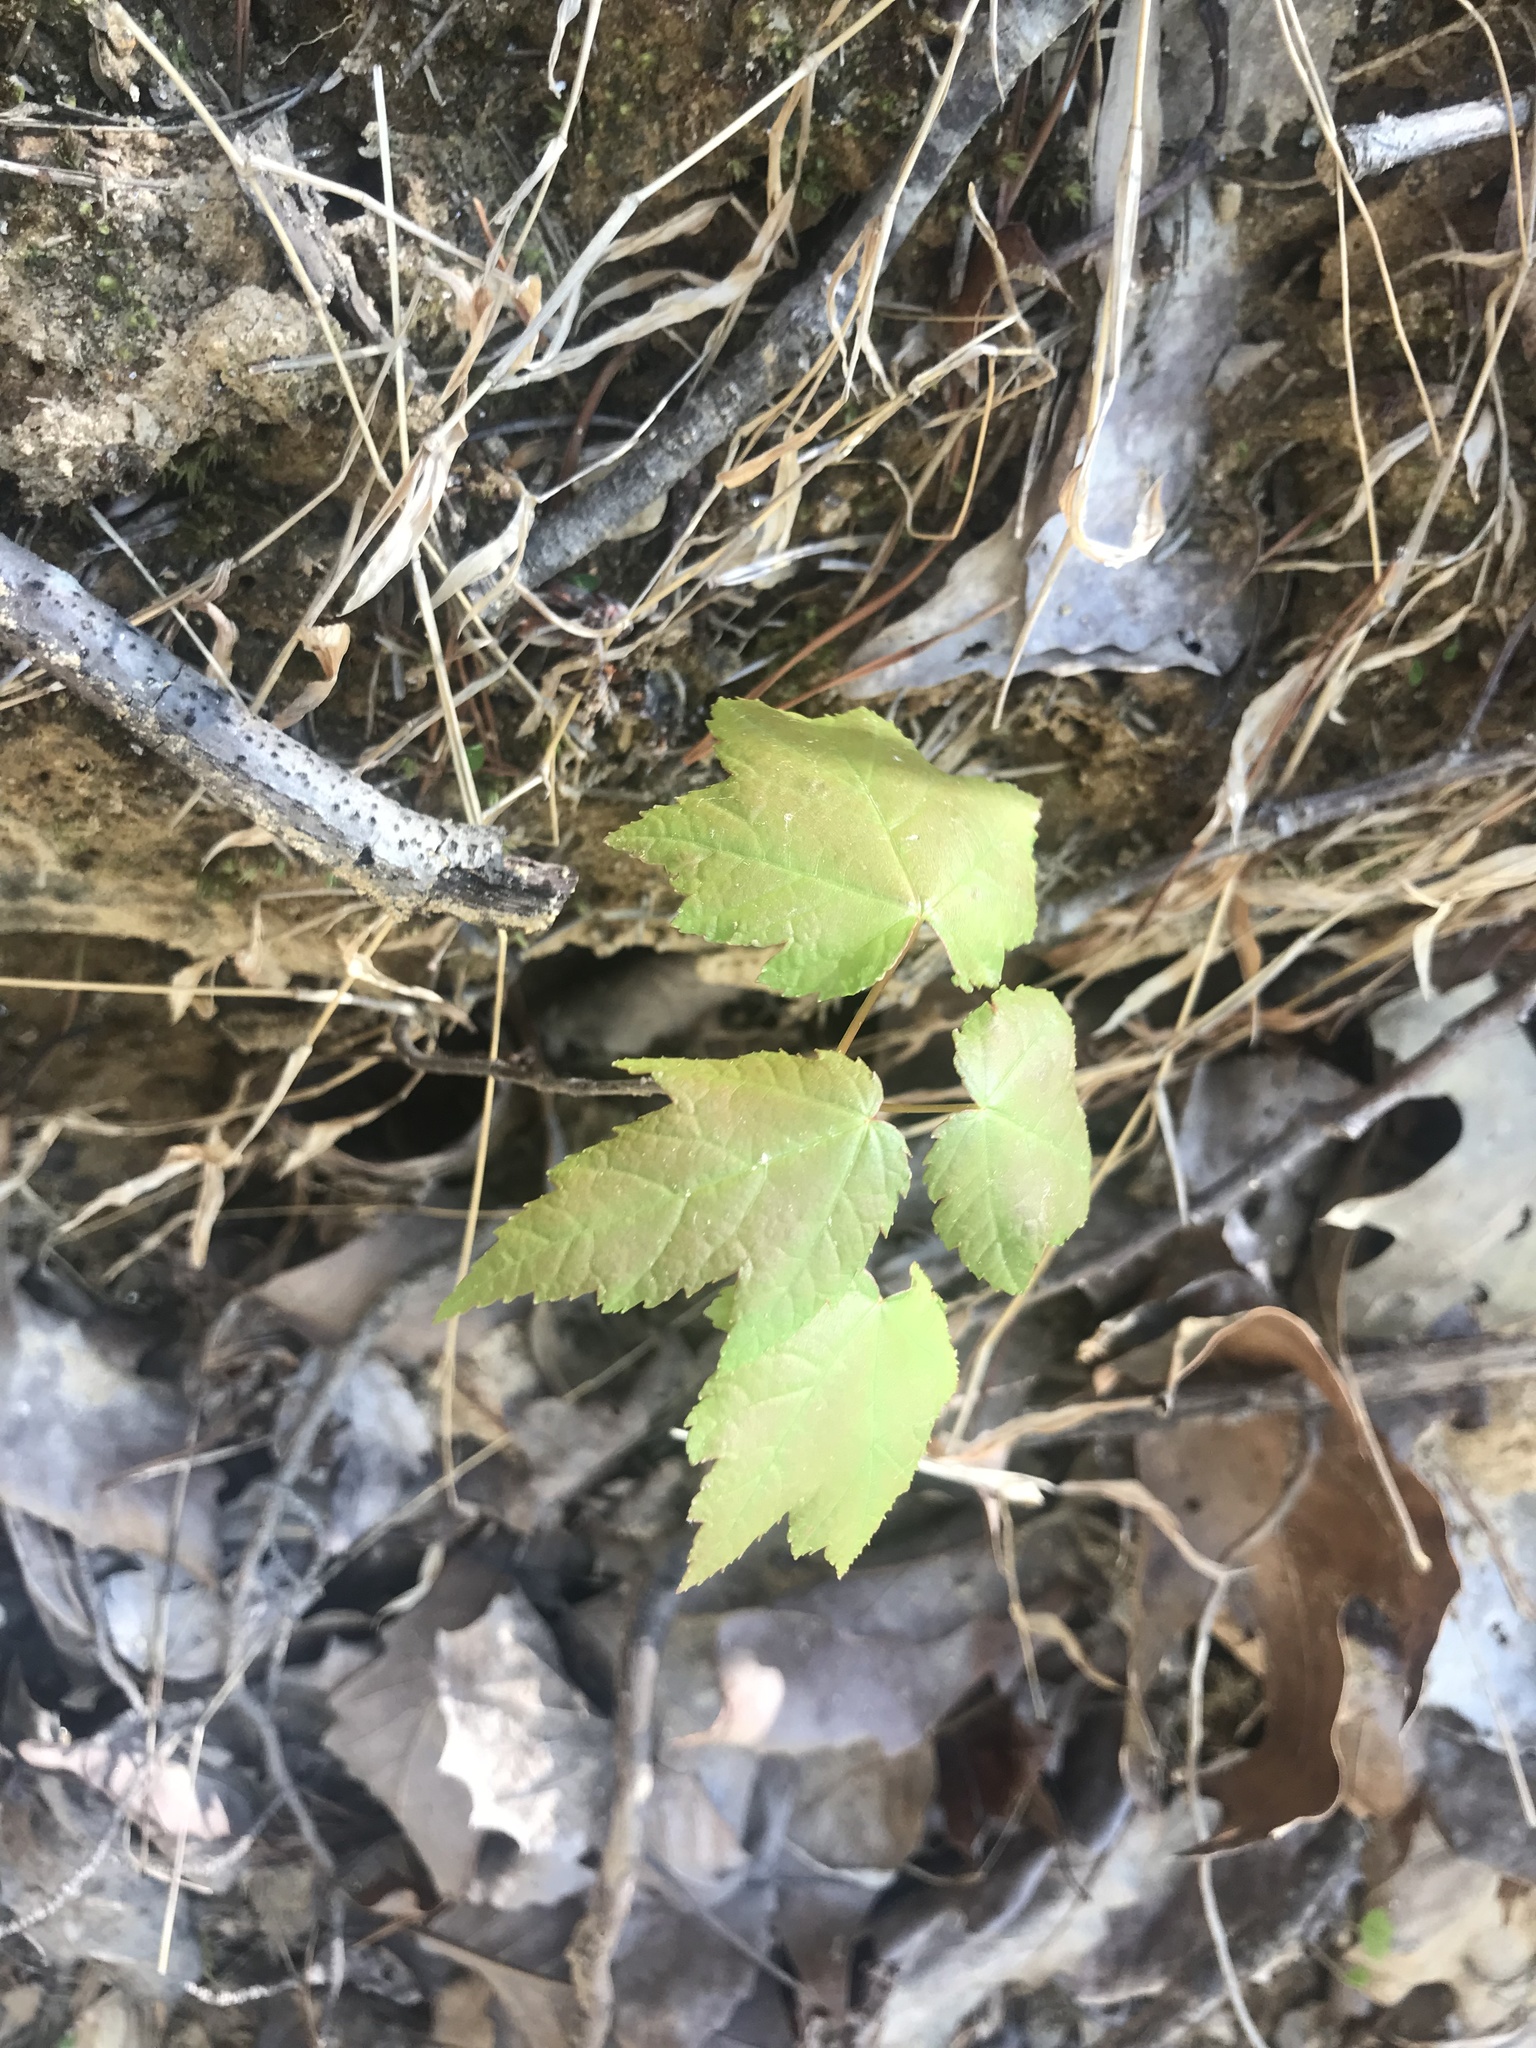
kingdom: Plantae
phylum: Tracheophyta
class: Magnoliopsida
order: Sapindales
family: Sapindaceae
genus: Acer
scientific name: Acer rubrum
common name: Red maple
